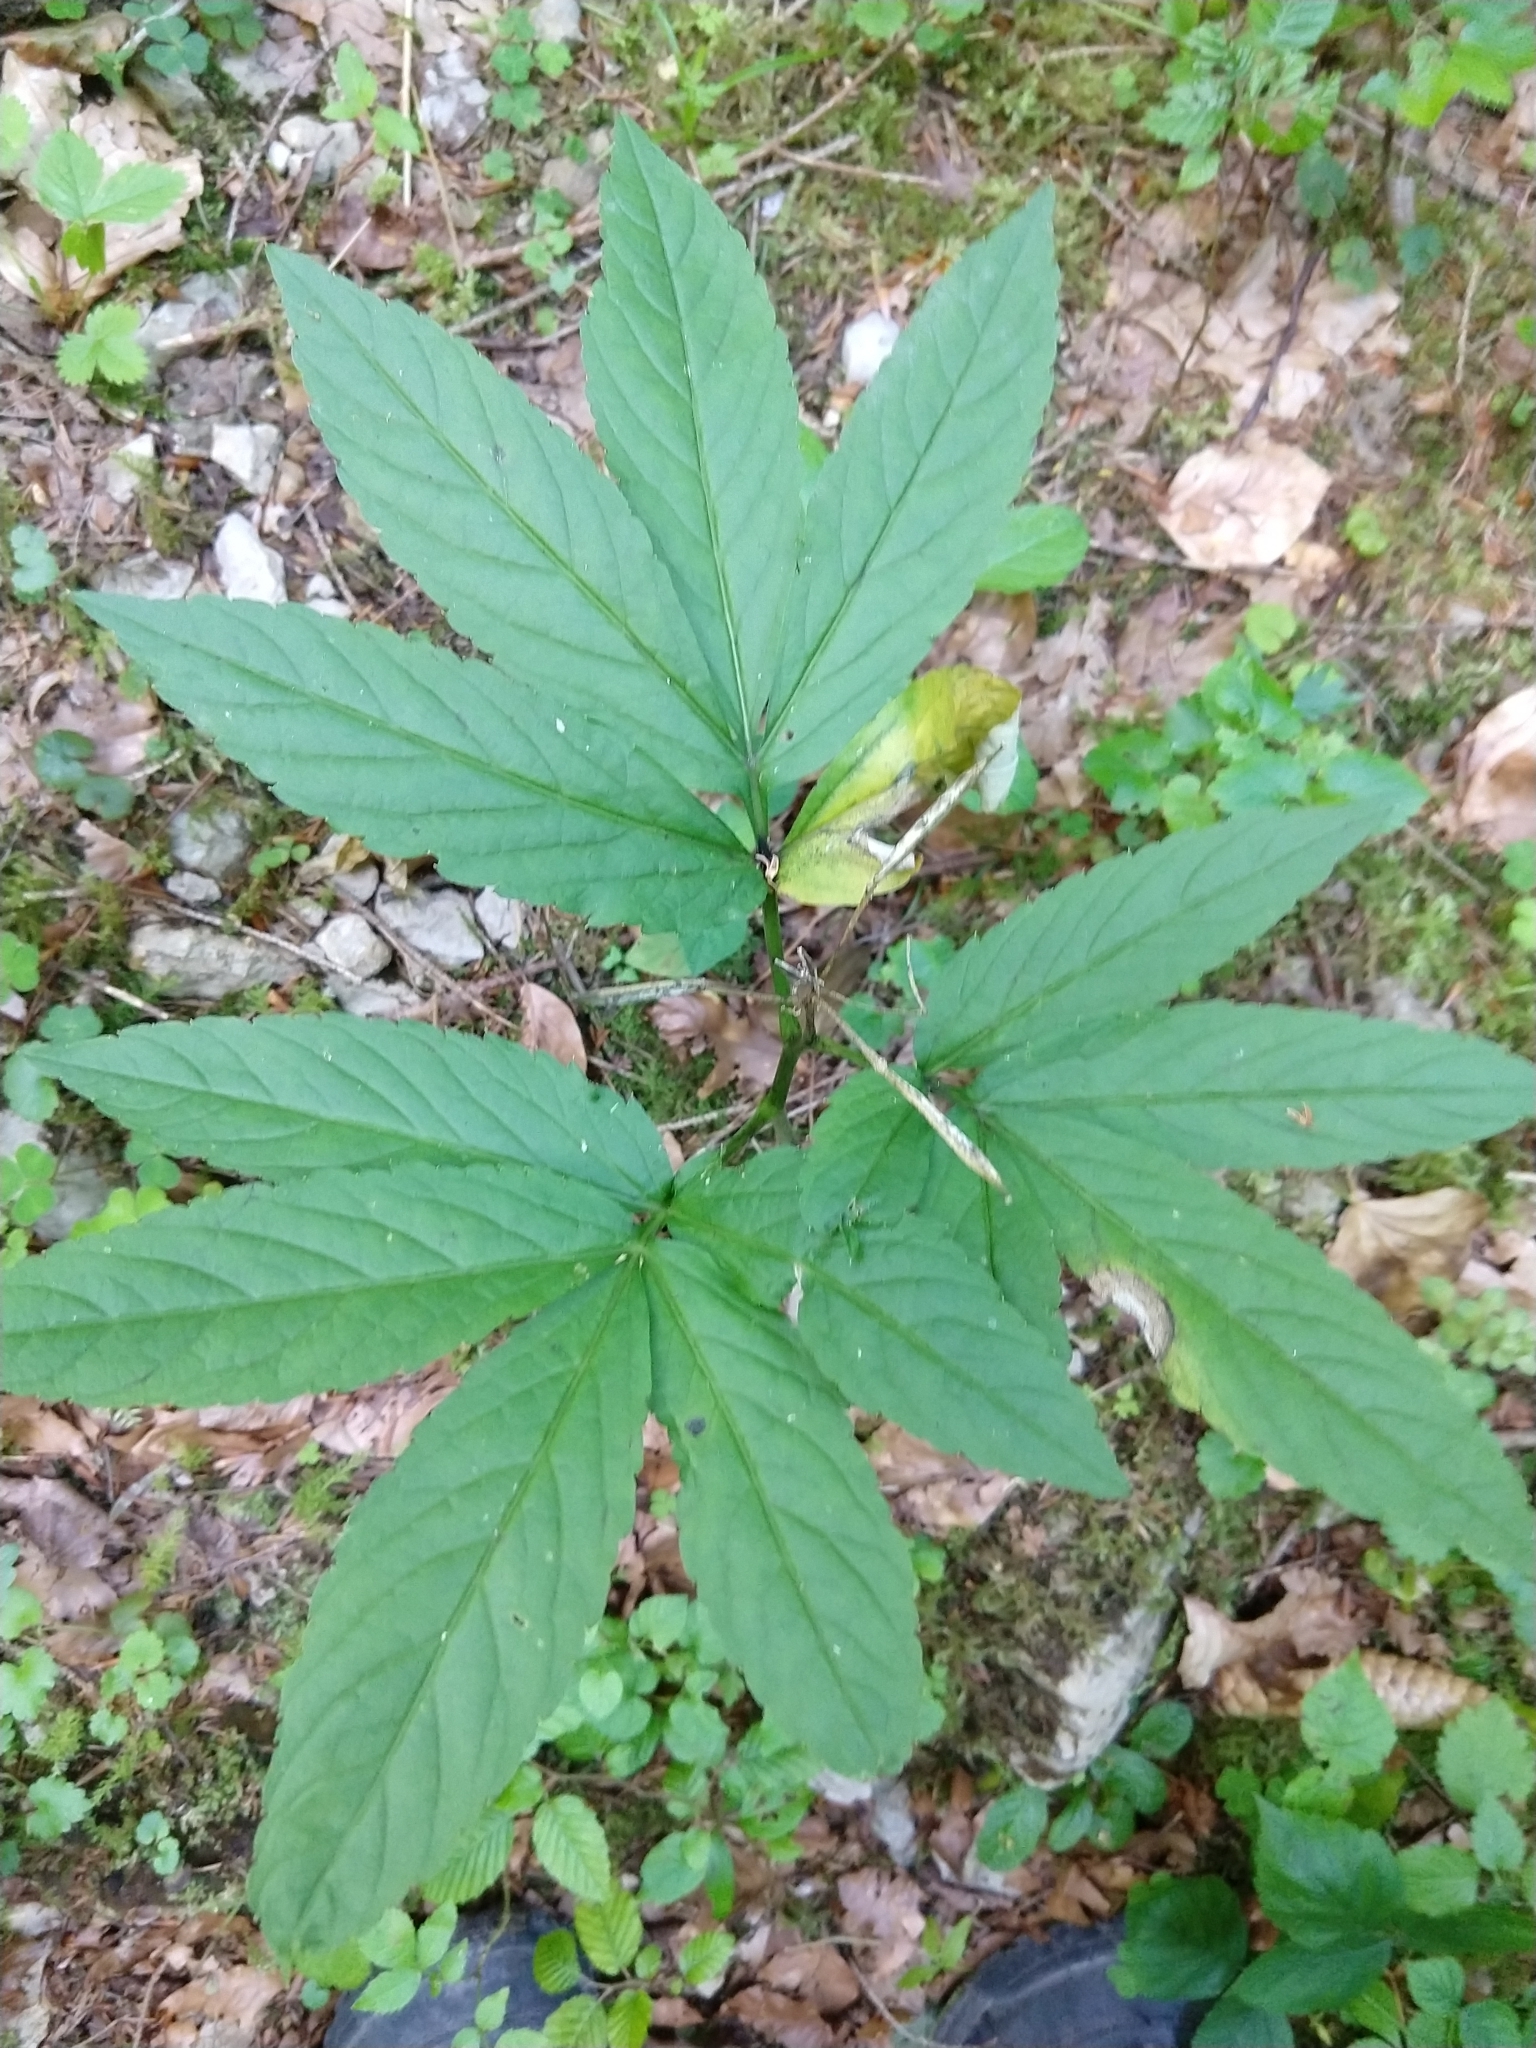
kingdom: Plantae
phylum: Tracheophyta
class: Magnoliopsida
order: Brassicales
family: Brassicaceae
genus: Cardamine
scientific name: Cardamine heptaphylla
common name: Pinnate coralroot
